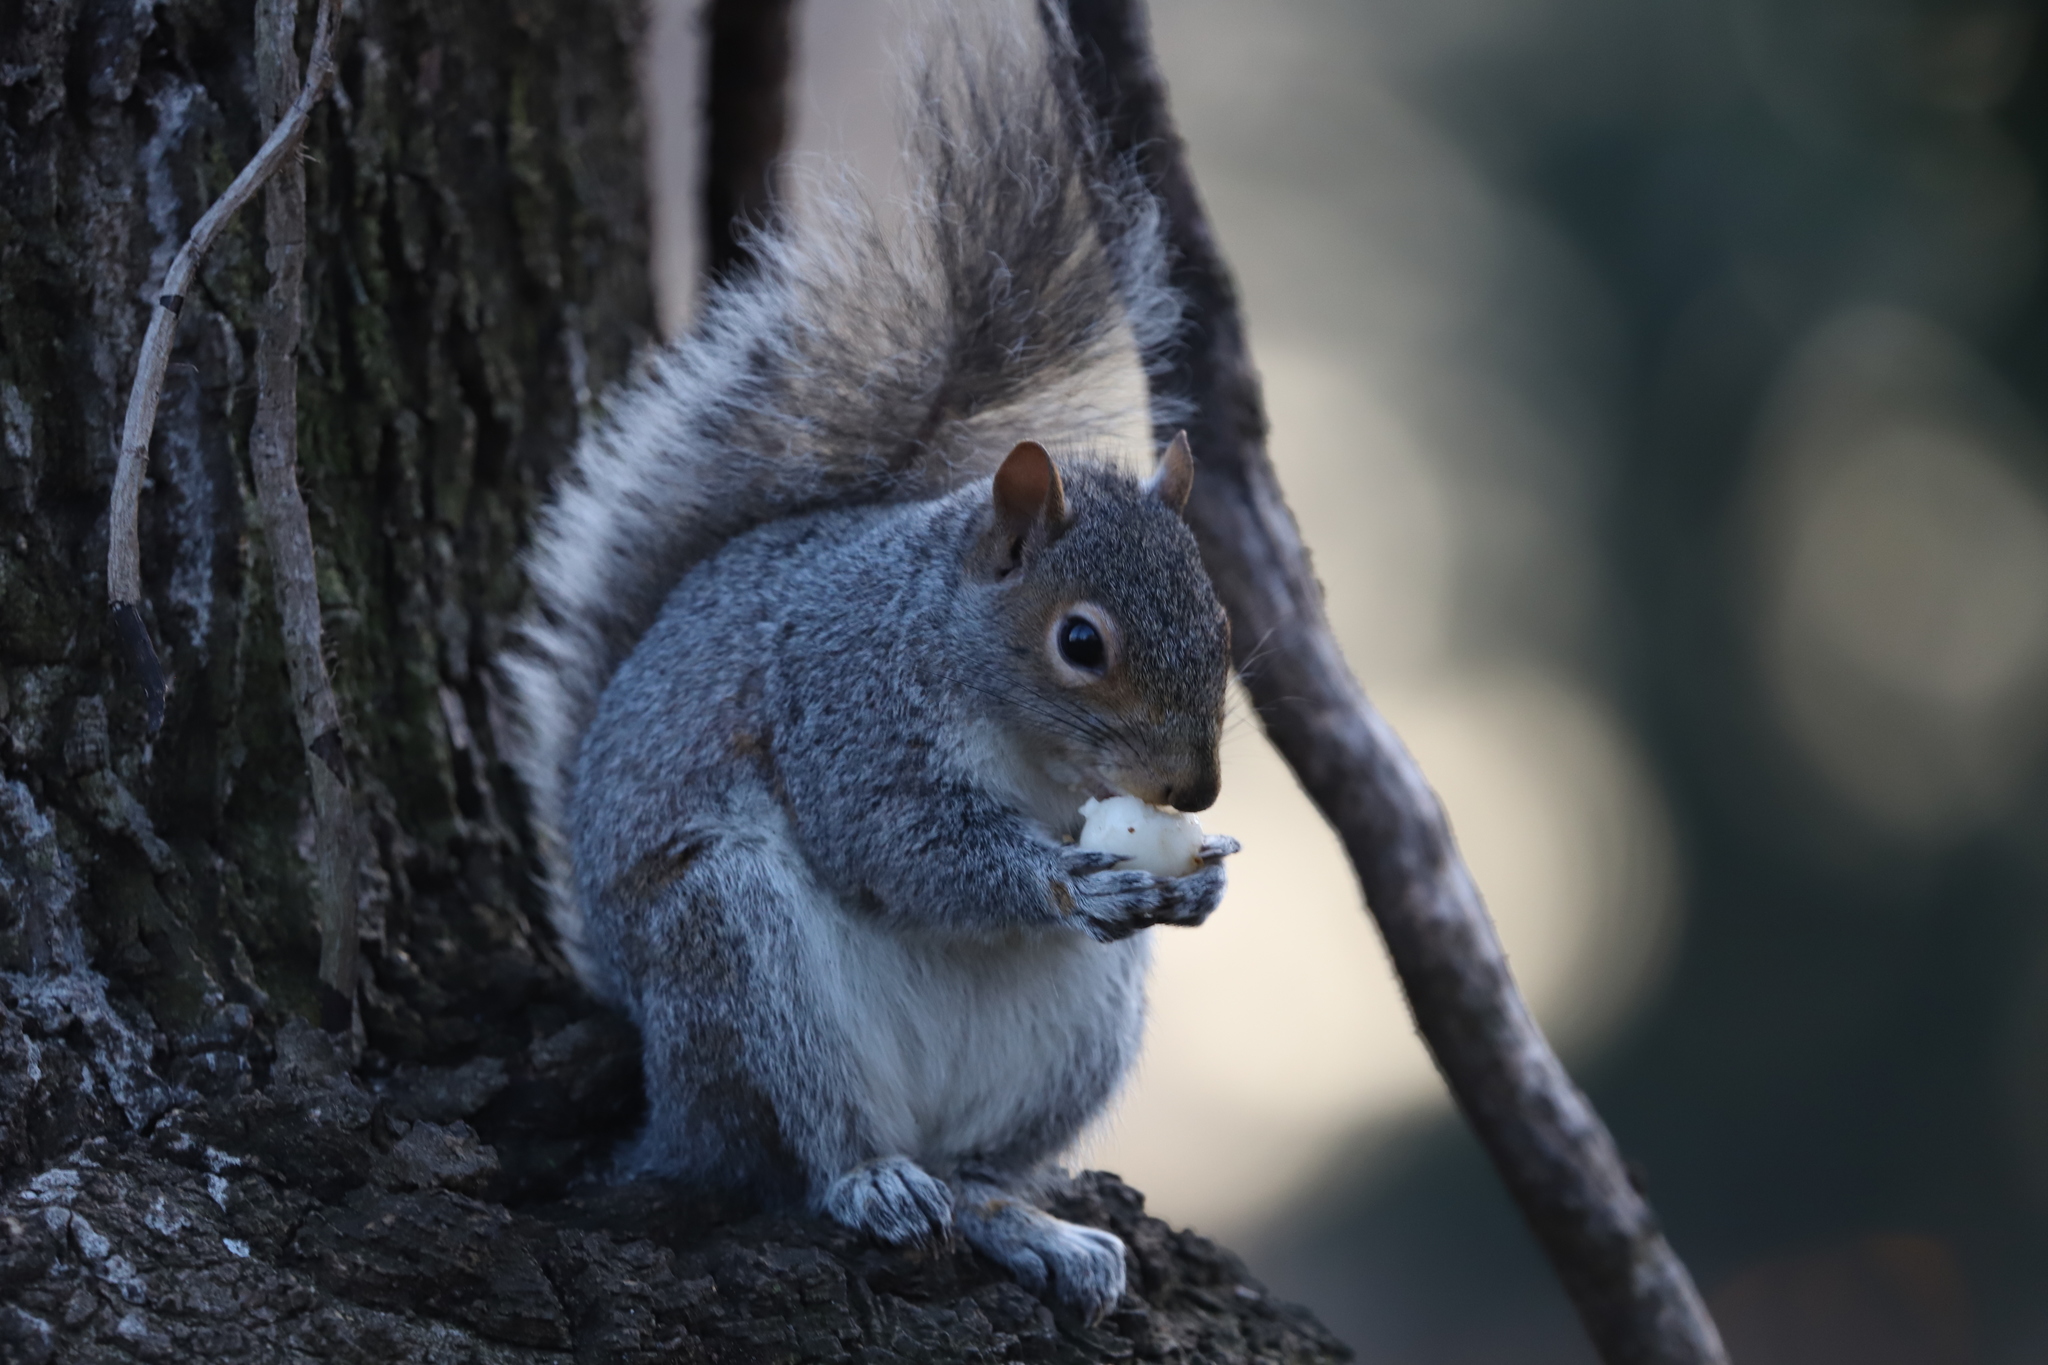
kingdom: Animalia
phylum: Chordata
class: Mammalia
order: Rodentia
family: Sciuridae
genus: Sciurus
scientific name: Sciurus carolinensis
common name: Eastern gray squirrel
